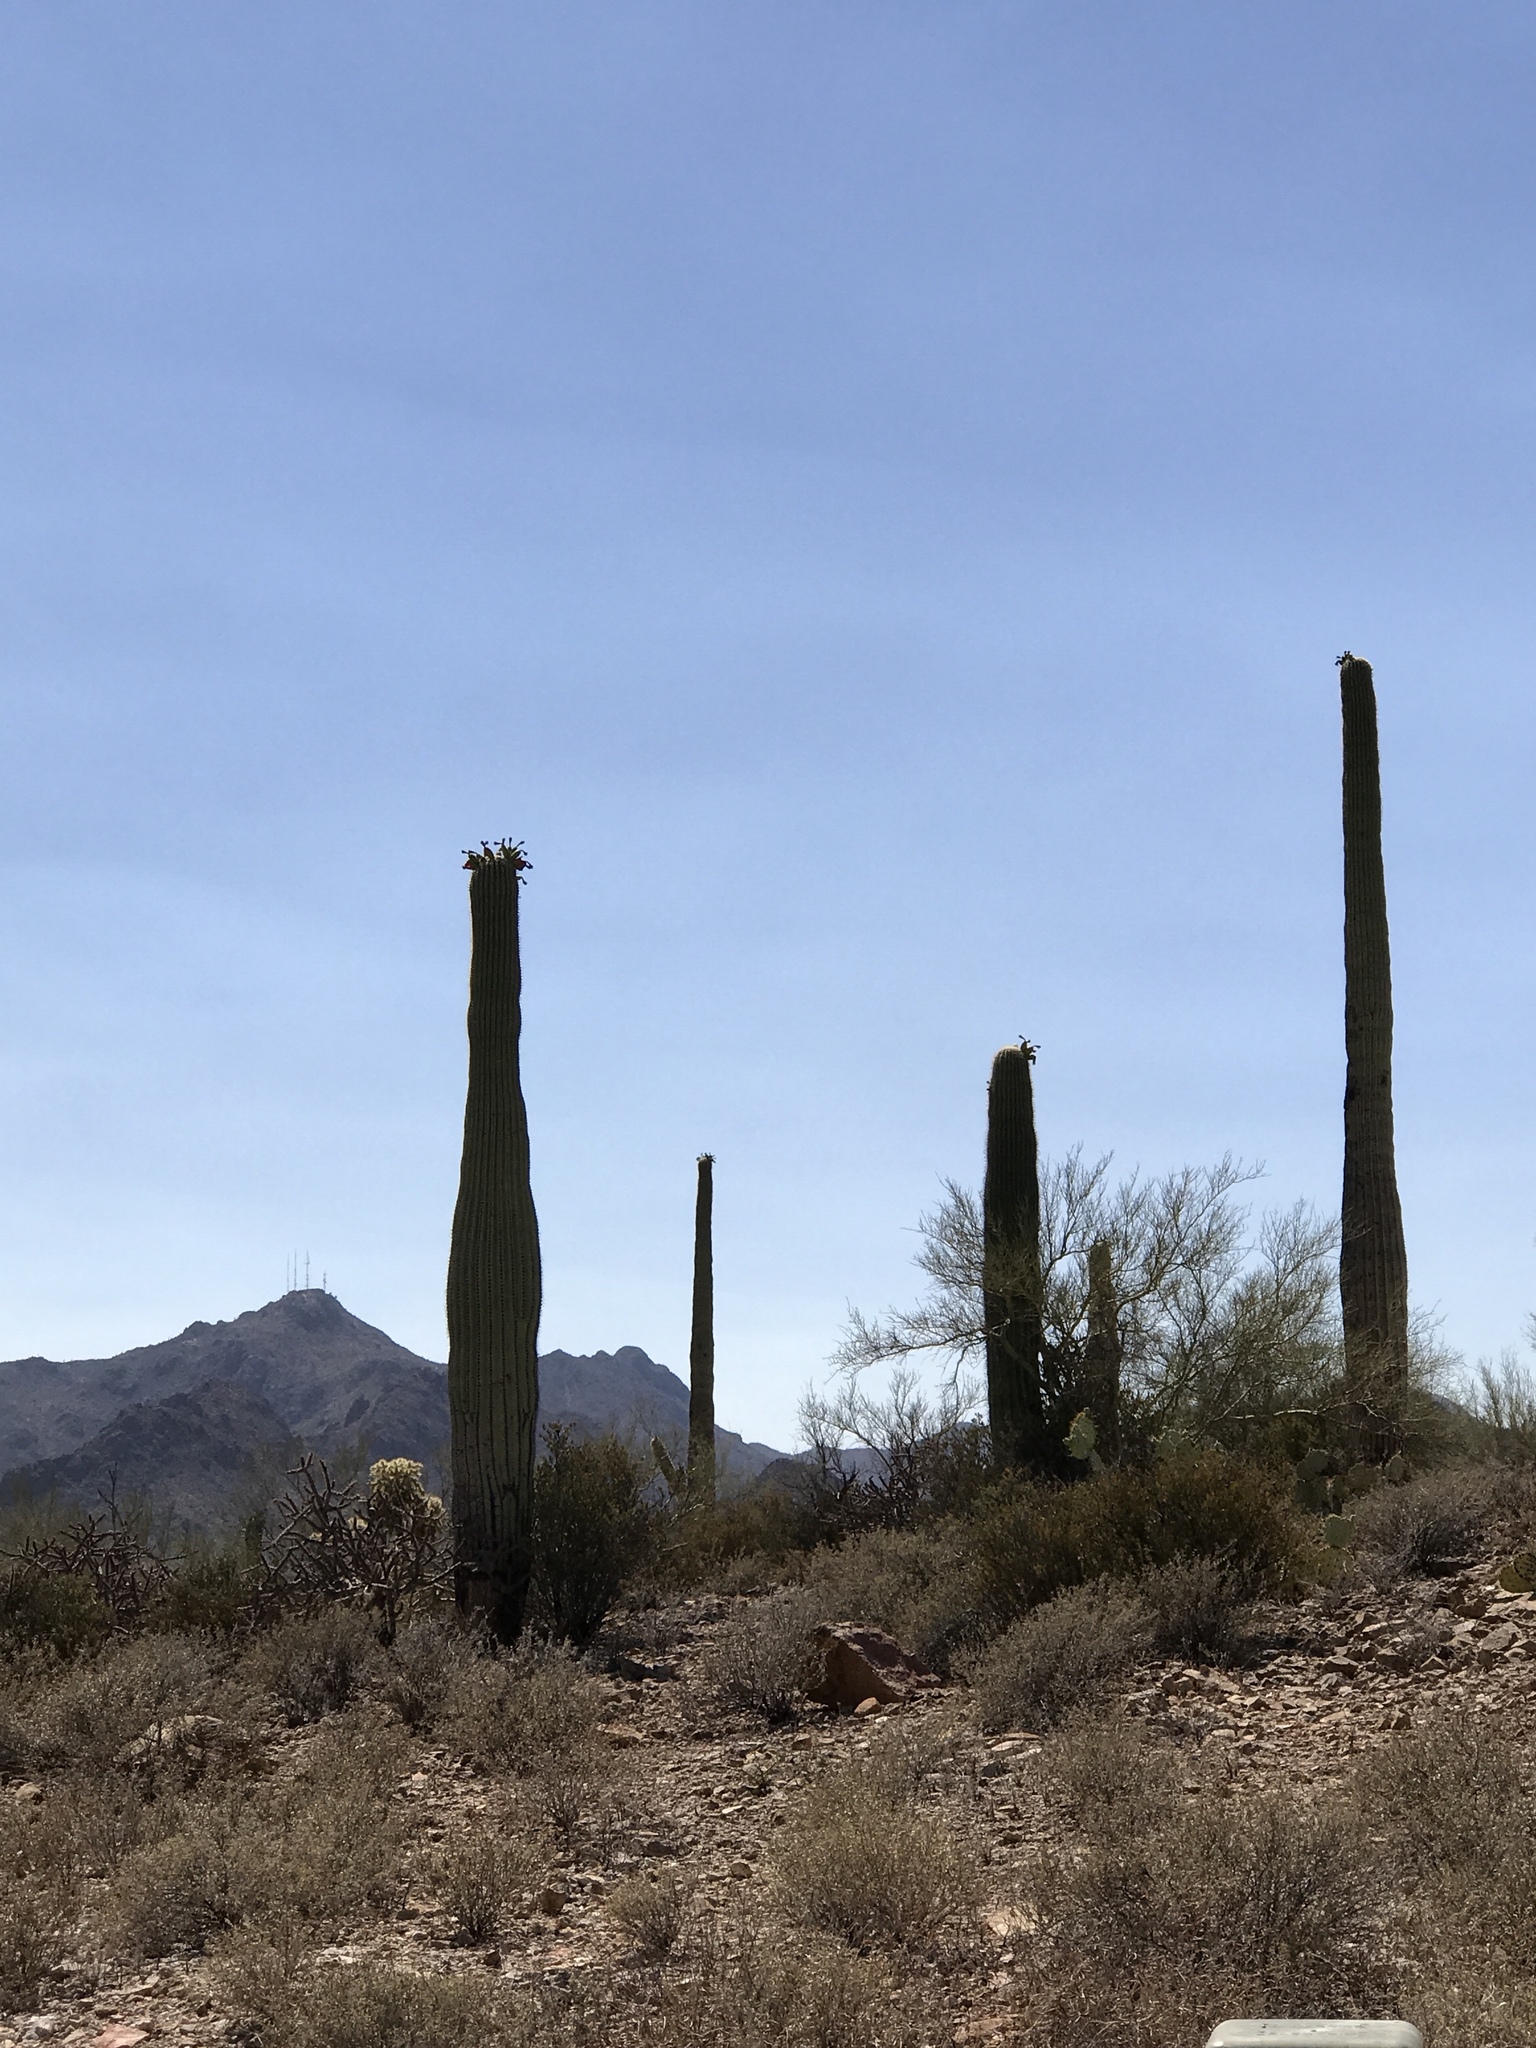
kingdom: Plantae
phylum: Tracheophyta
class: Magnoliopsida
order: Caryophyllales
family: Cactaceae
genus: Carnegiea
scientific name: Carnegiea gigantea
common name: Saguaro
